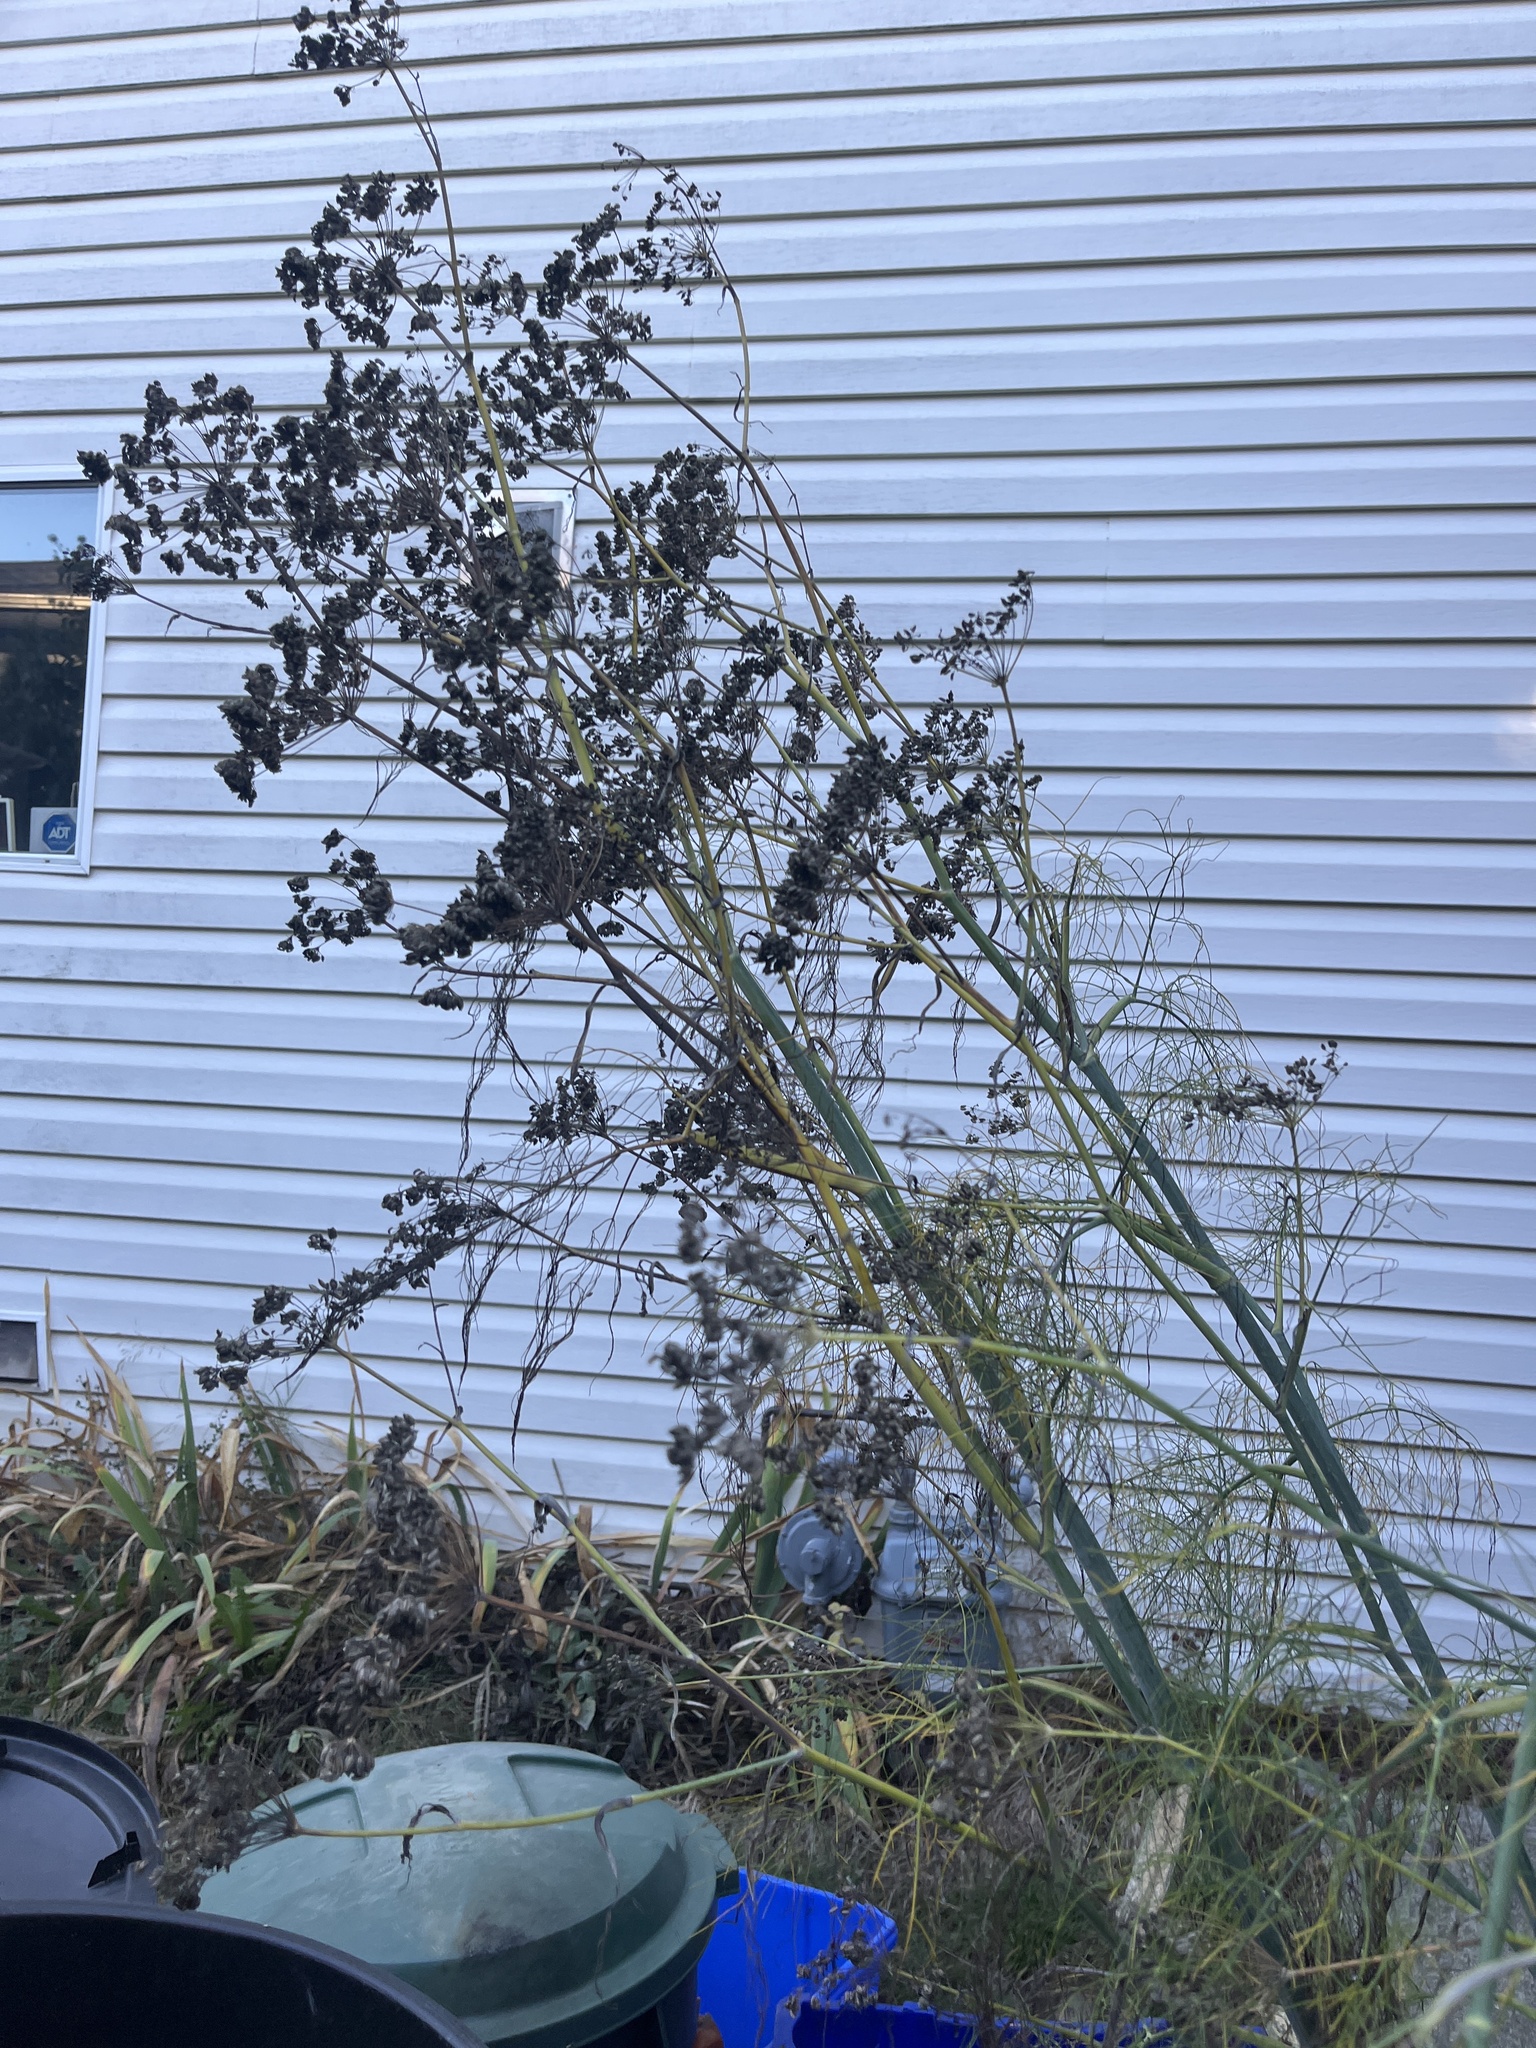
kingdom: Plantae
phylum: Tracheophyta
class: Magnoliopsida
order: Apiales
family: Apiaceae
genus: Foeniculum
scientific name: Foeniculum vulgare
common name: Fennel
